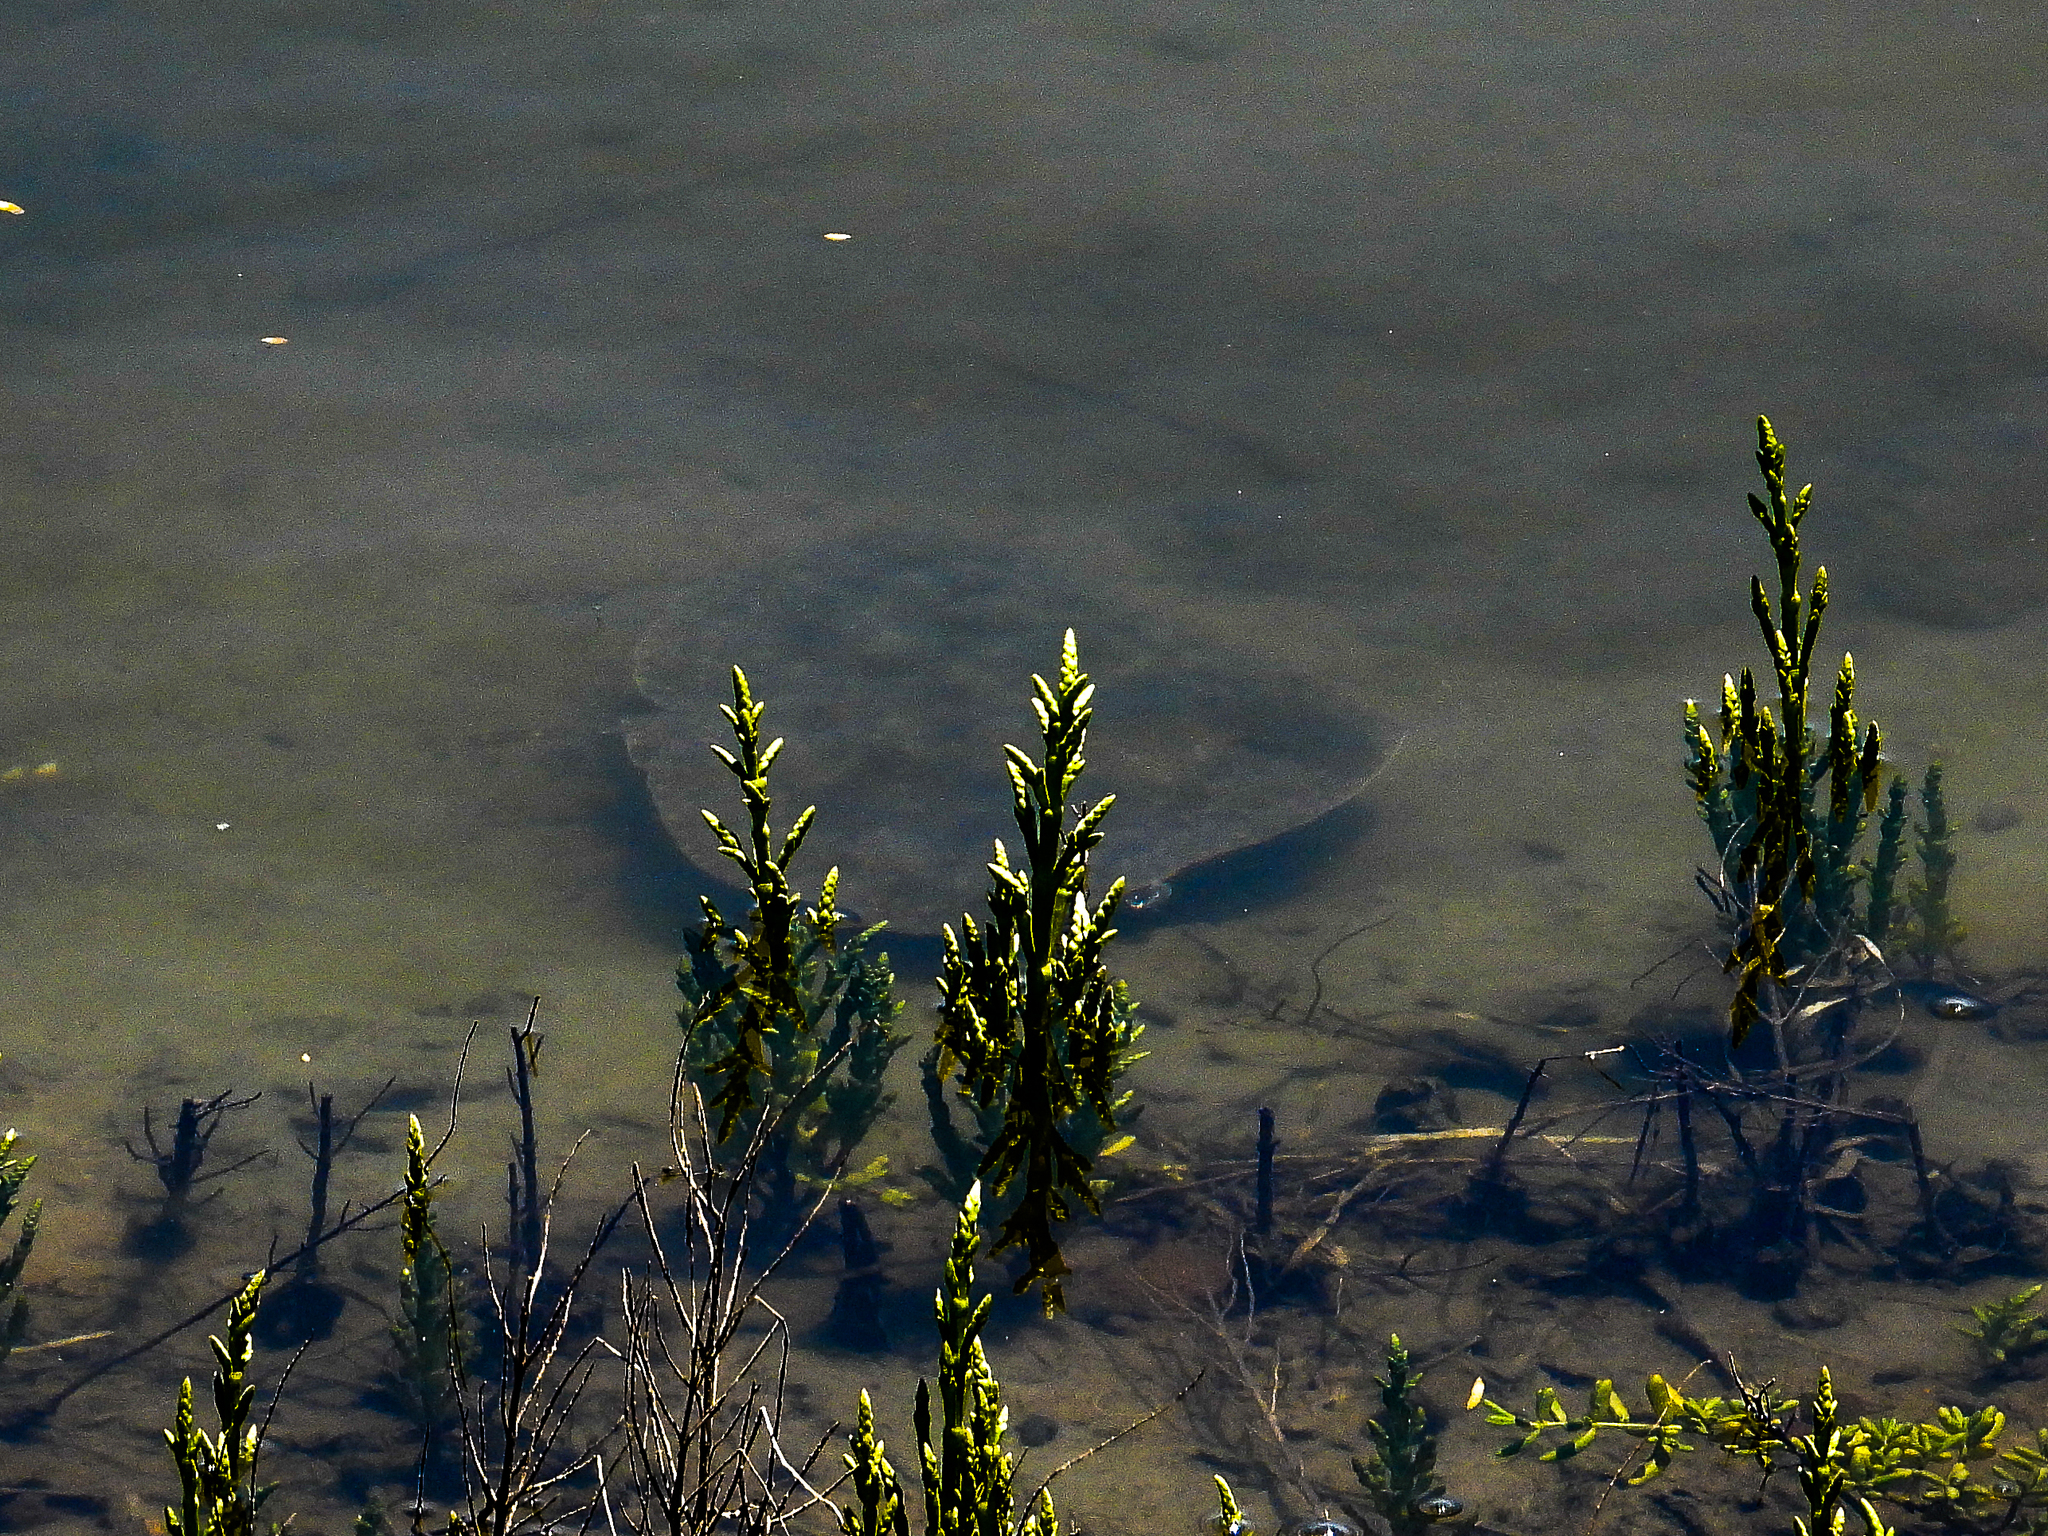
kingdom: Animalia
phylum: Chordata
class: Elasmobranchii
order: Myliobatiformes
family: Gymnuridae
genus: Gymnura
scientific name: Gymnura marmorata
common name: California butterfly ray
